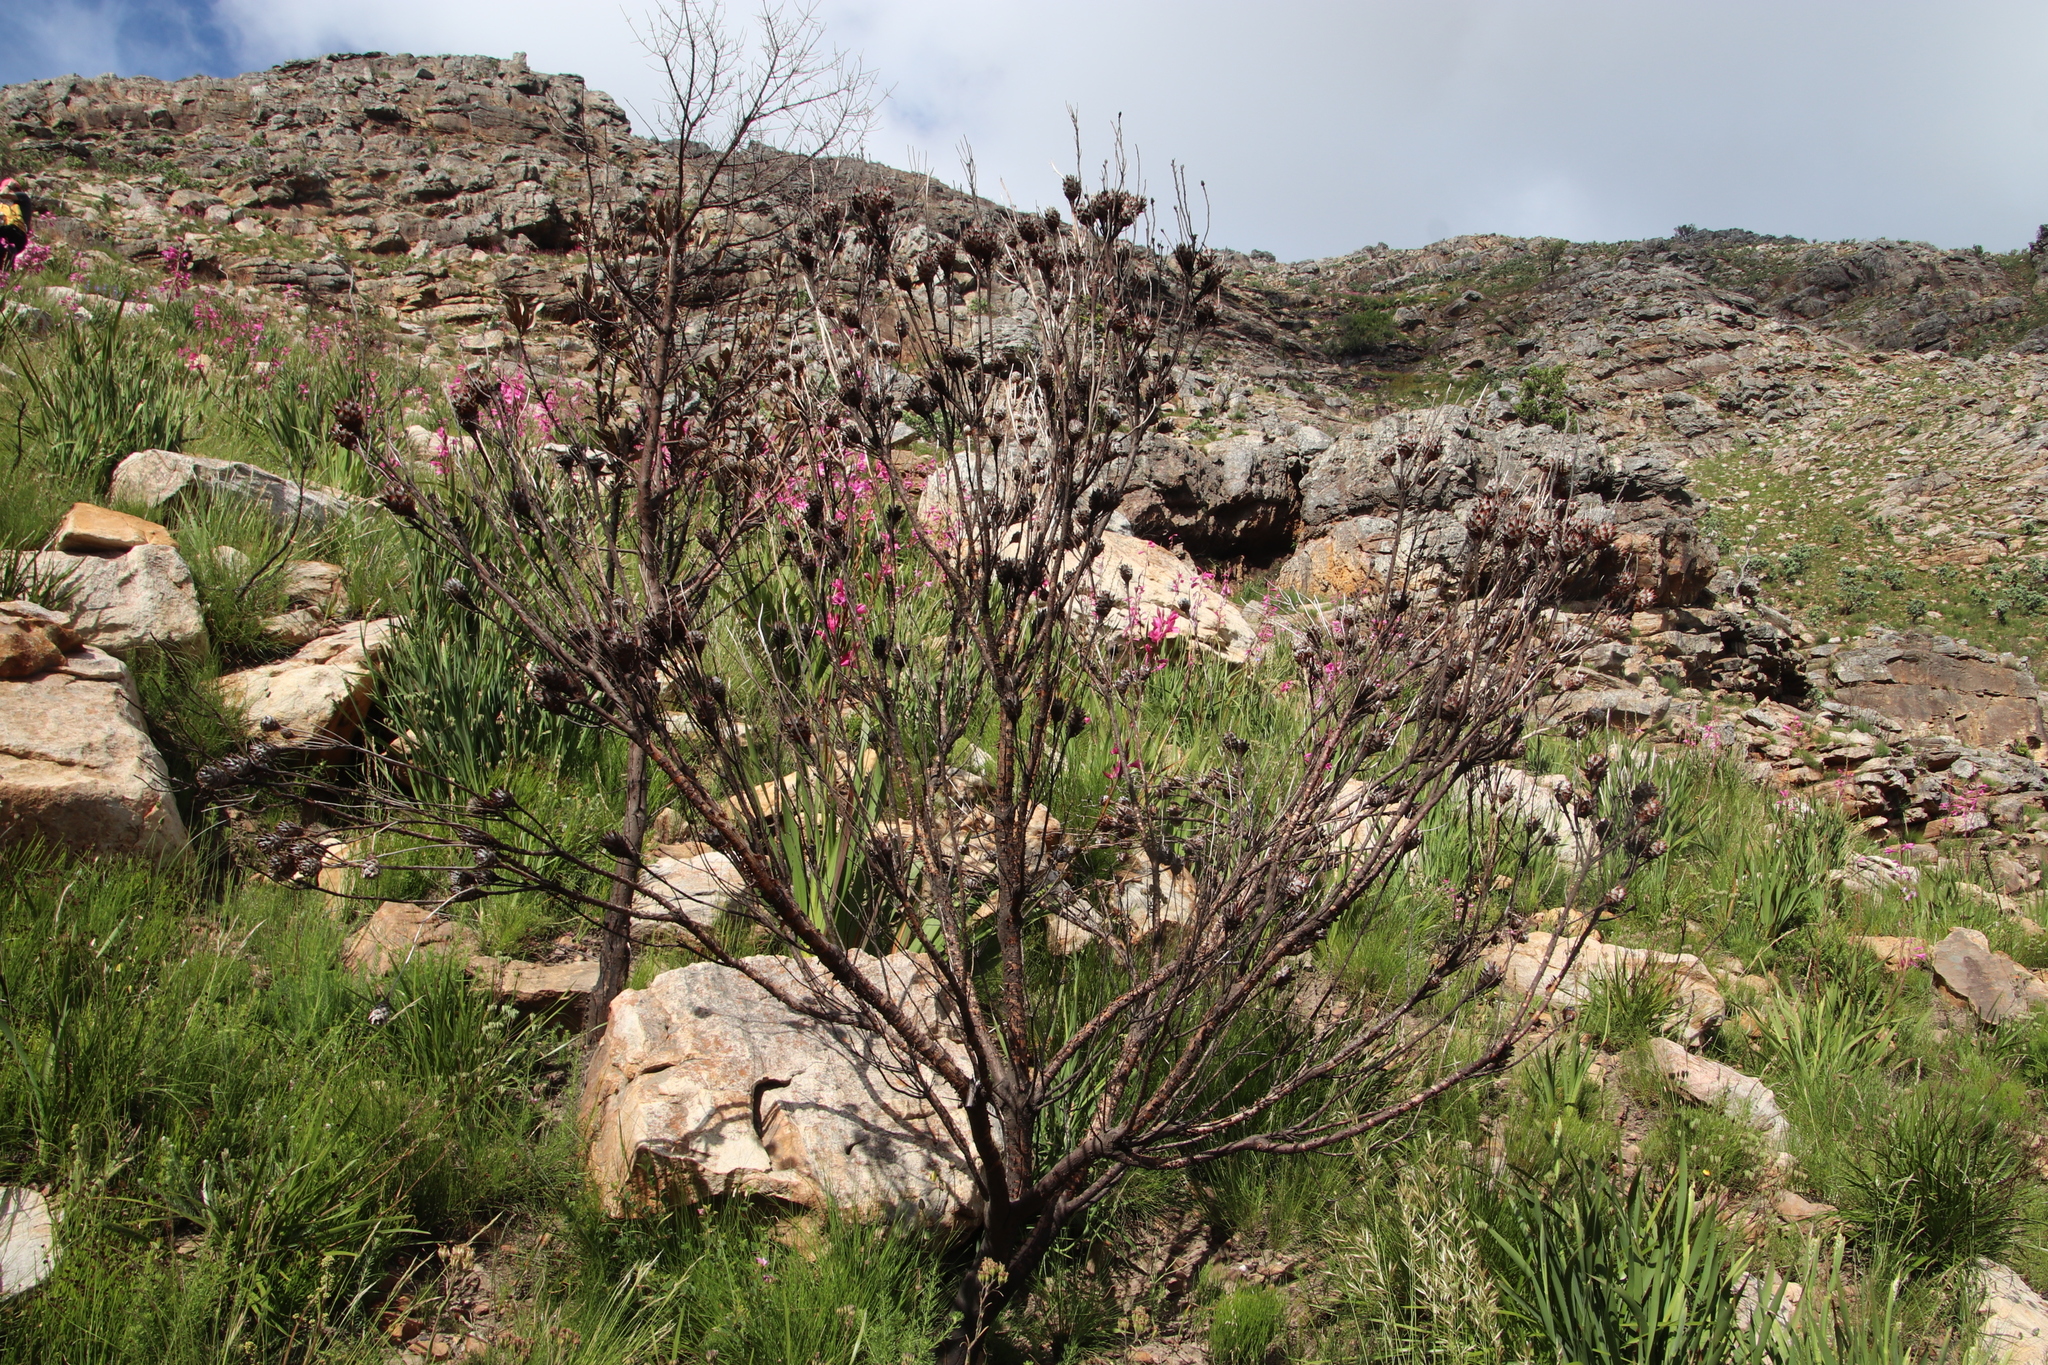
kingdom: Plantae
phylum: Tracheophyta
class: Magnoliopsida
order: Proteales
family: Proteaceae
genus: Leucadendron
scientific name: Leucadendron rubrum
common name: Spinning top
